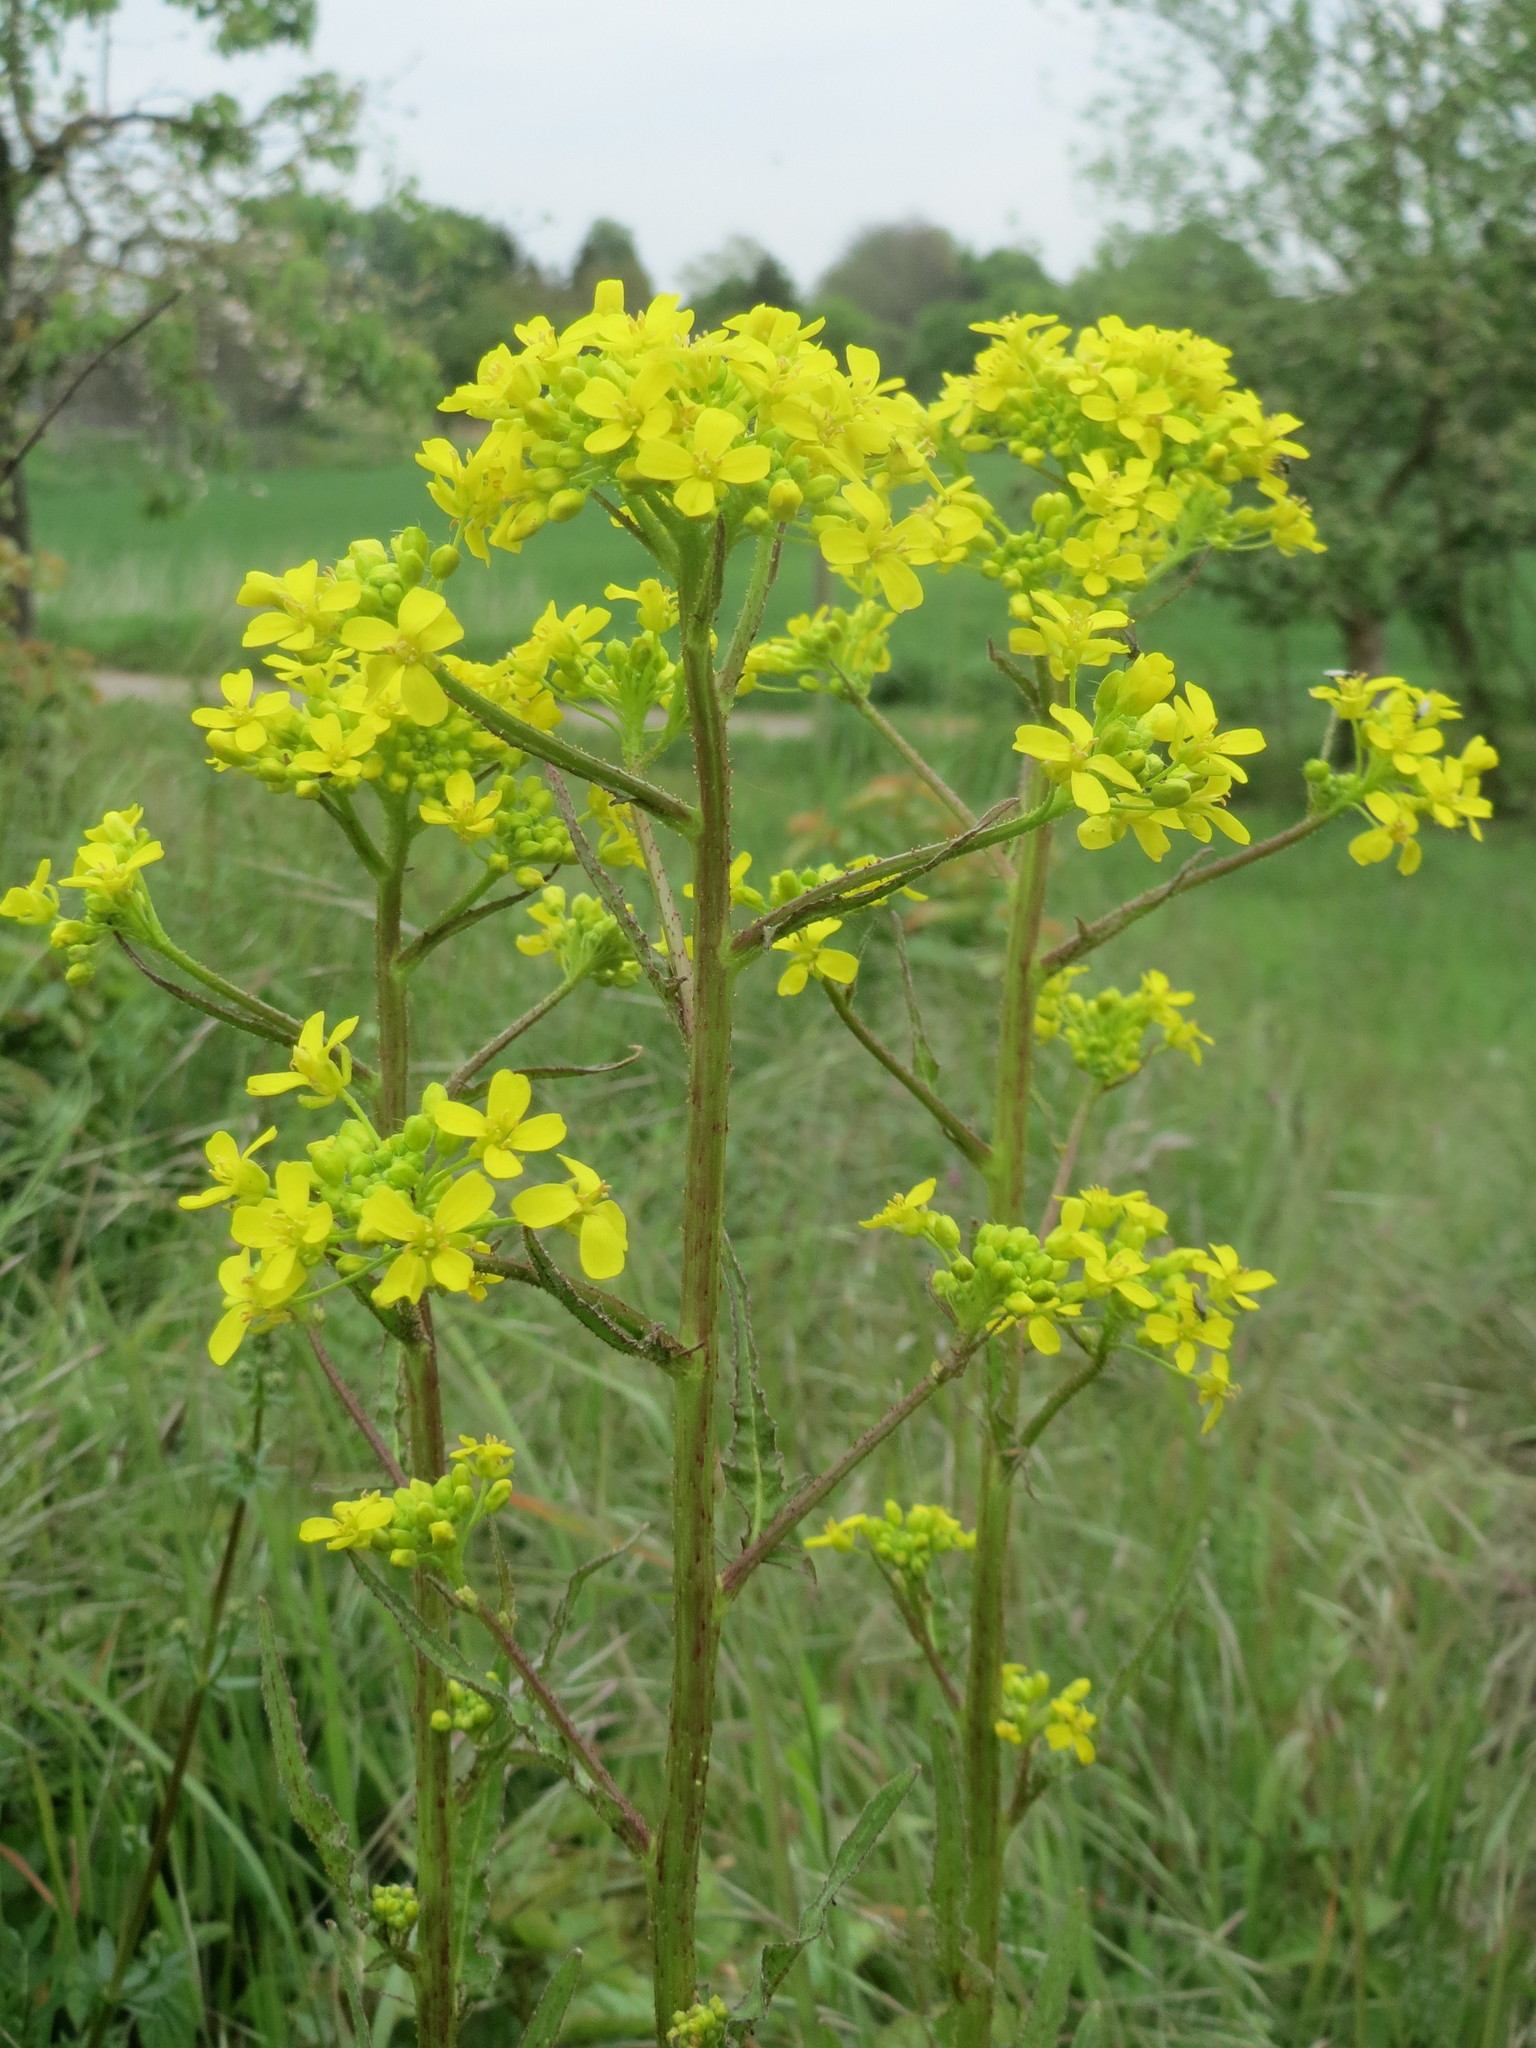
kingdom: Plantae
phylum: Tracheophyta
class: Magnoliopsida
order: Brassicales
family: Brassicaceae
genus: Bunias
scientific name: Bunias orientalis
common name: Warty-cabbage
